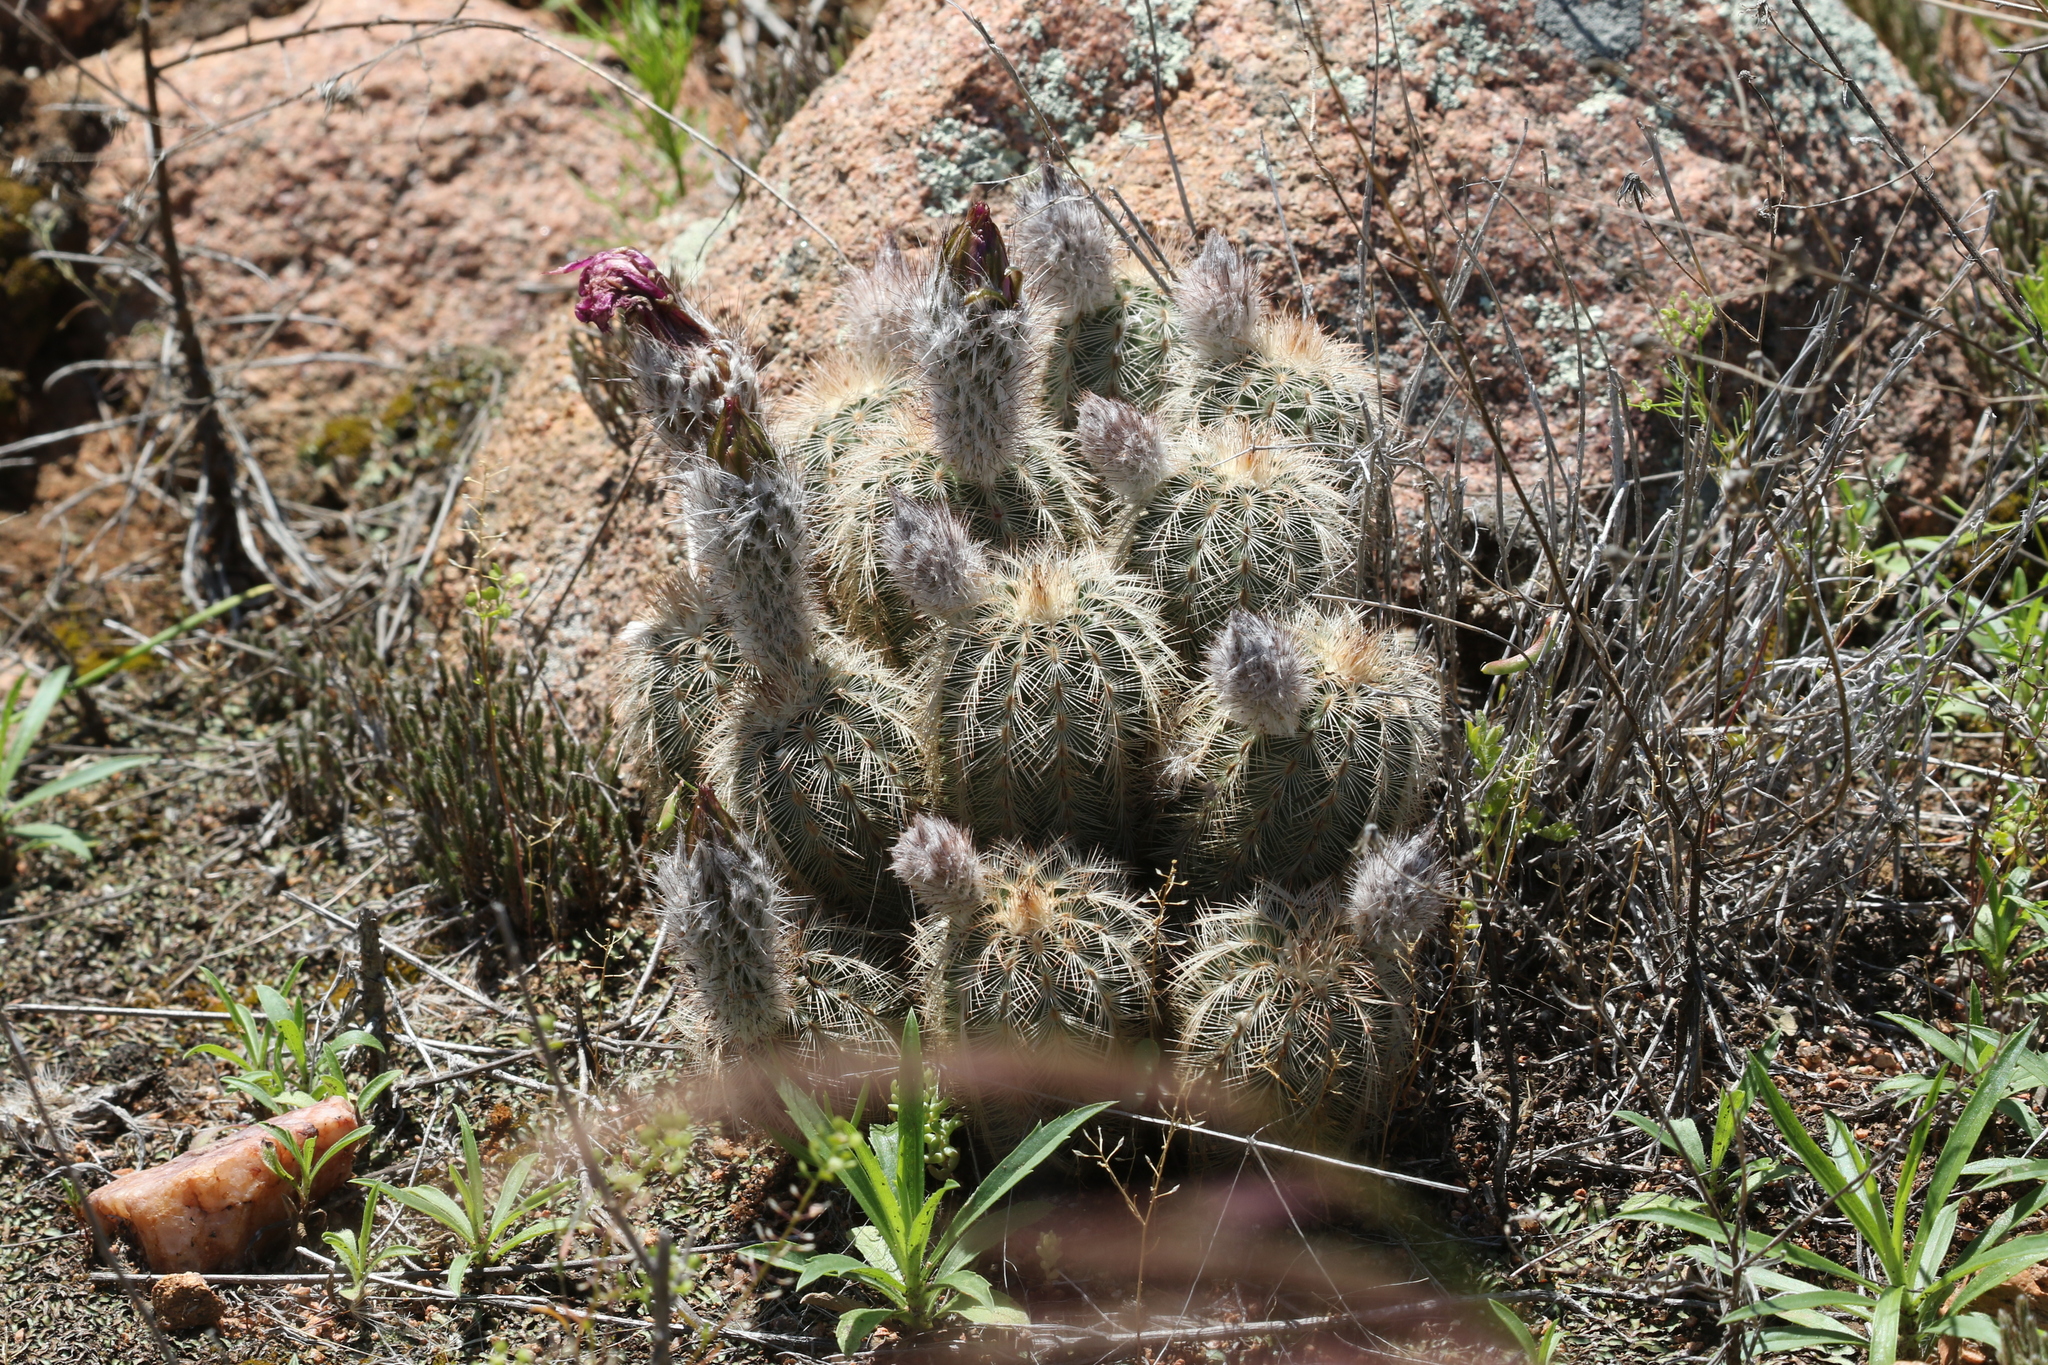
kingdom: Plantae
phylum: Tracheophyta
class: Magnoliopsida
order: Caryophyllales
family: Cactaceae
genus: Echinocereus
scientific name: Echinocereus reichenbachii
